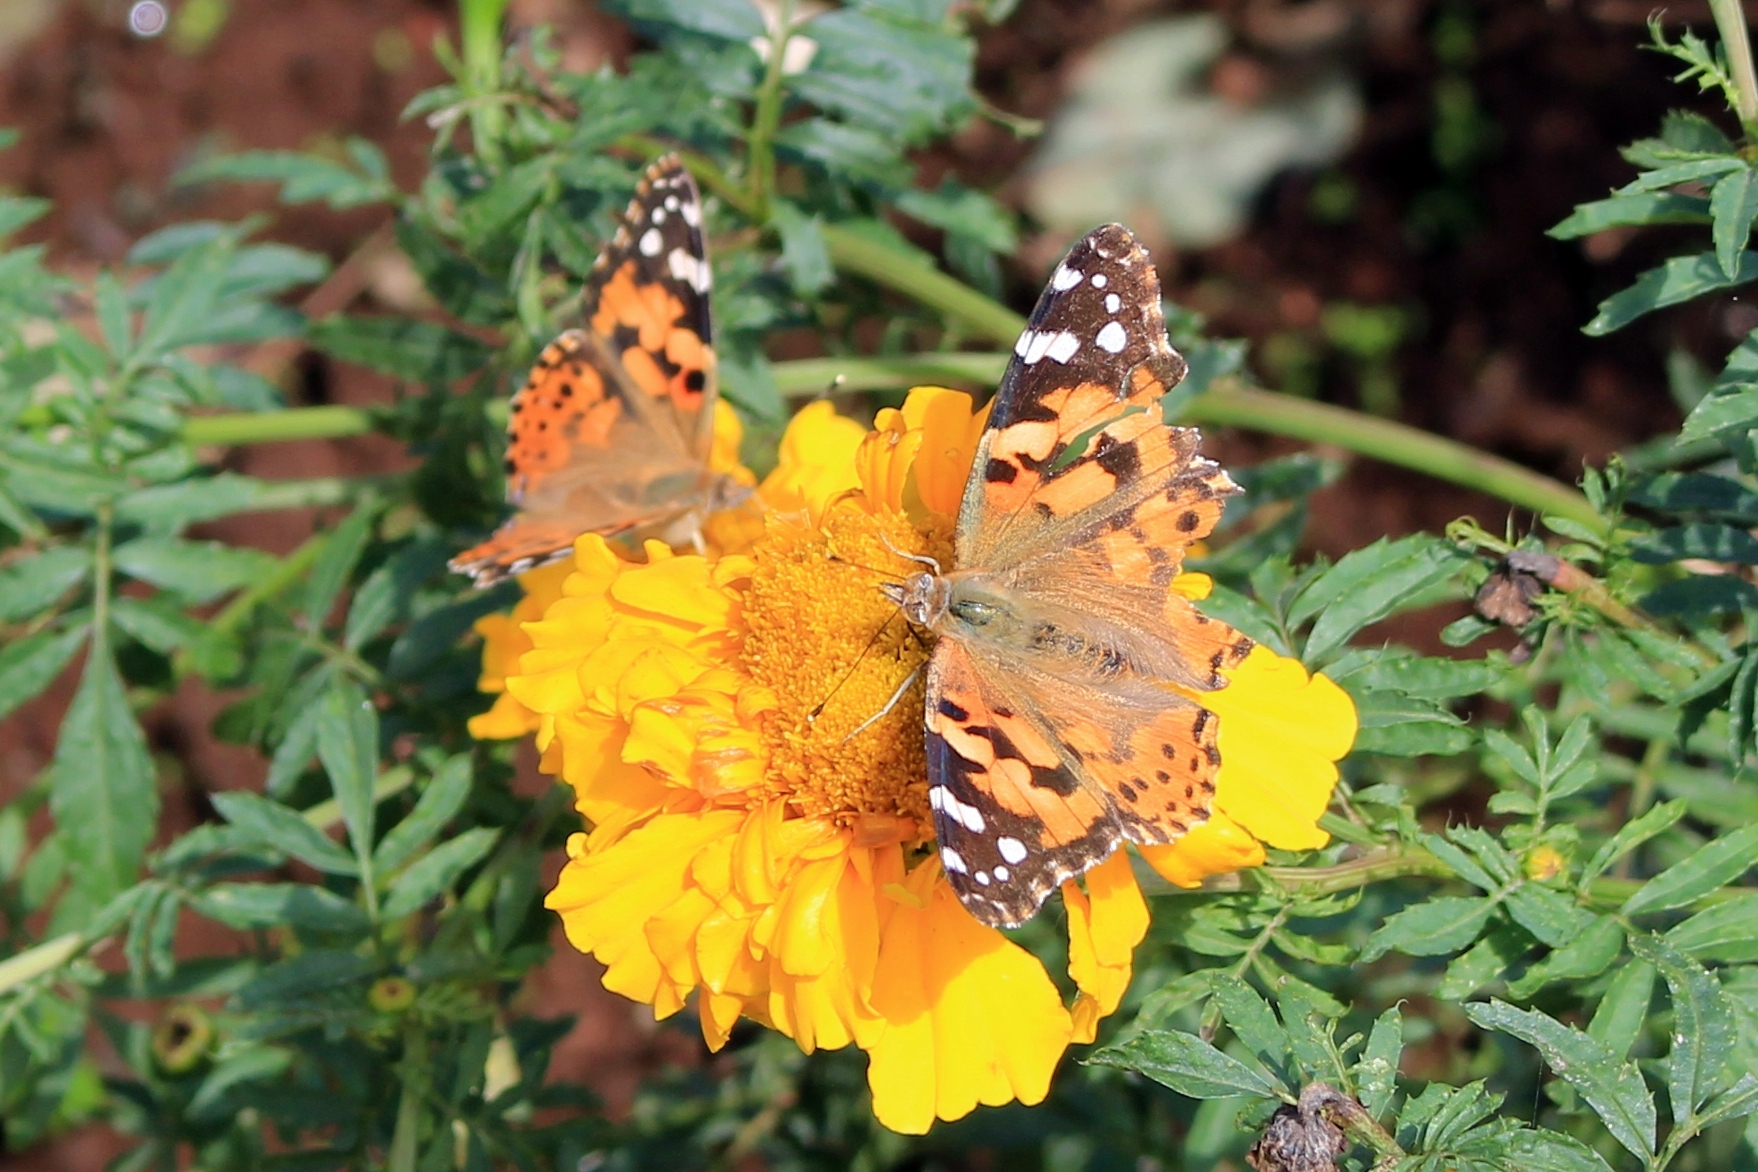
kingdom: Animalia
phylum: Arthropoda
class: Insecta
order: Lepidoptera
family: Nymphalidae
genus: Vanessa
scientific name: Vanessa cardui
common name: Painted lady
